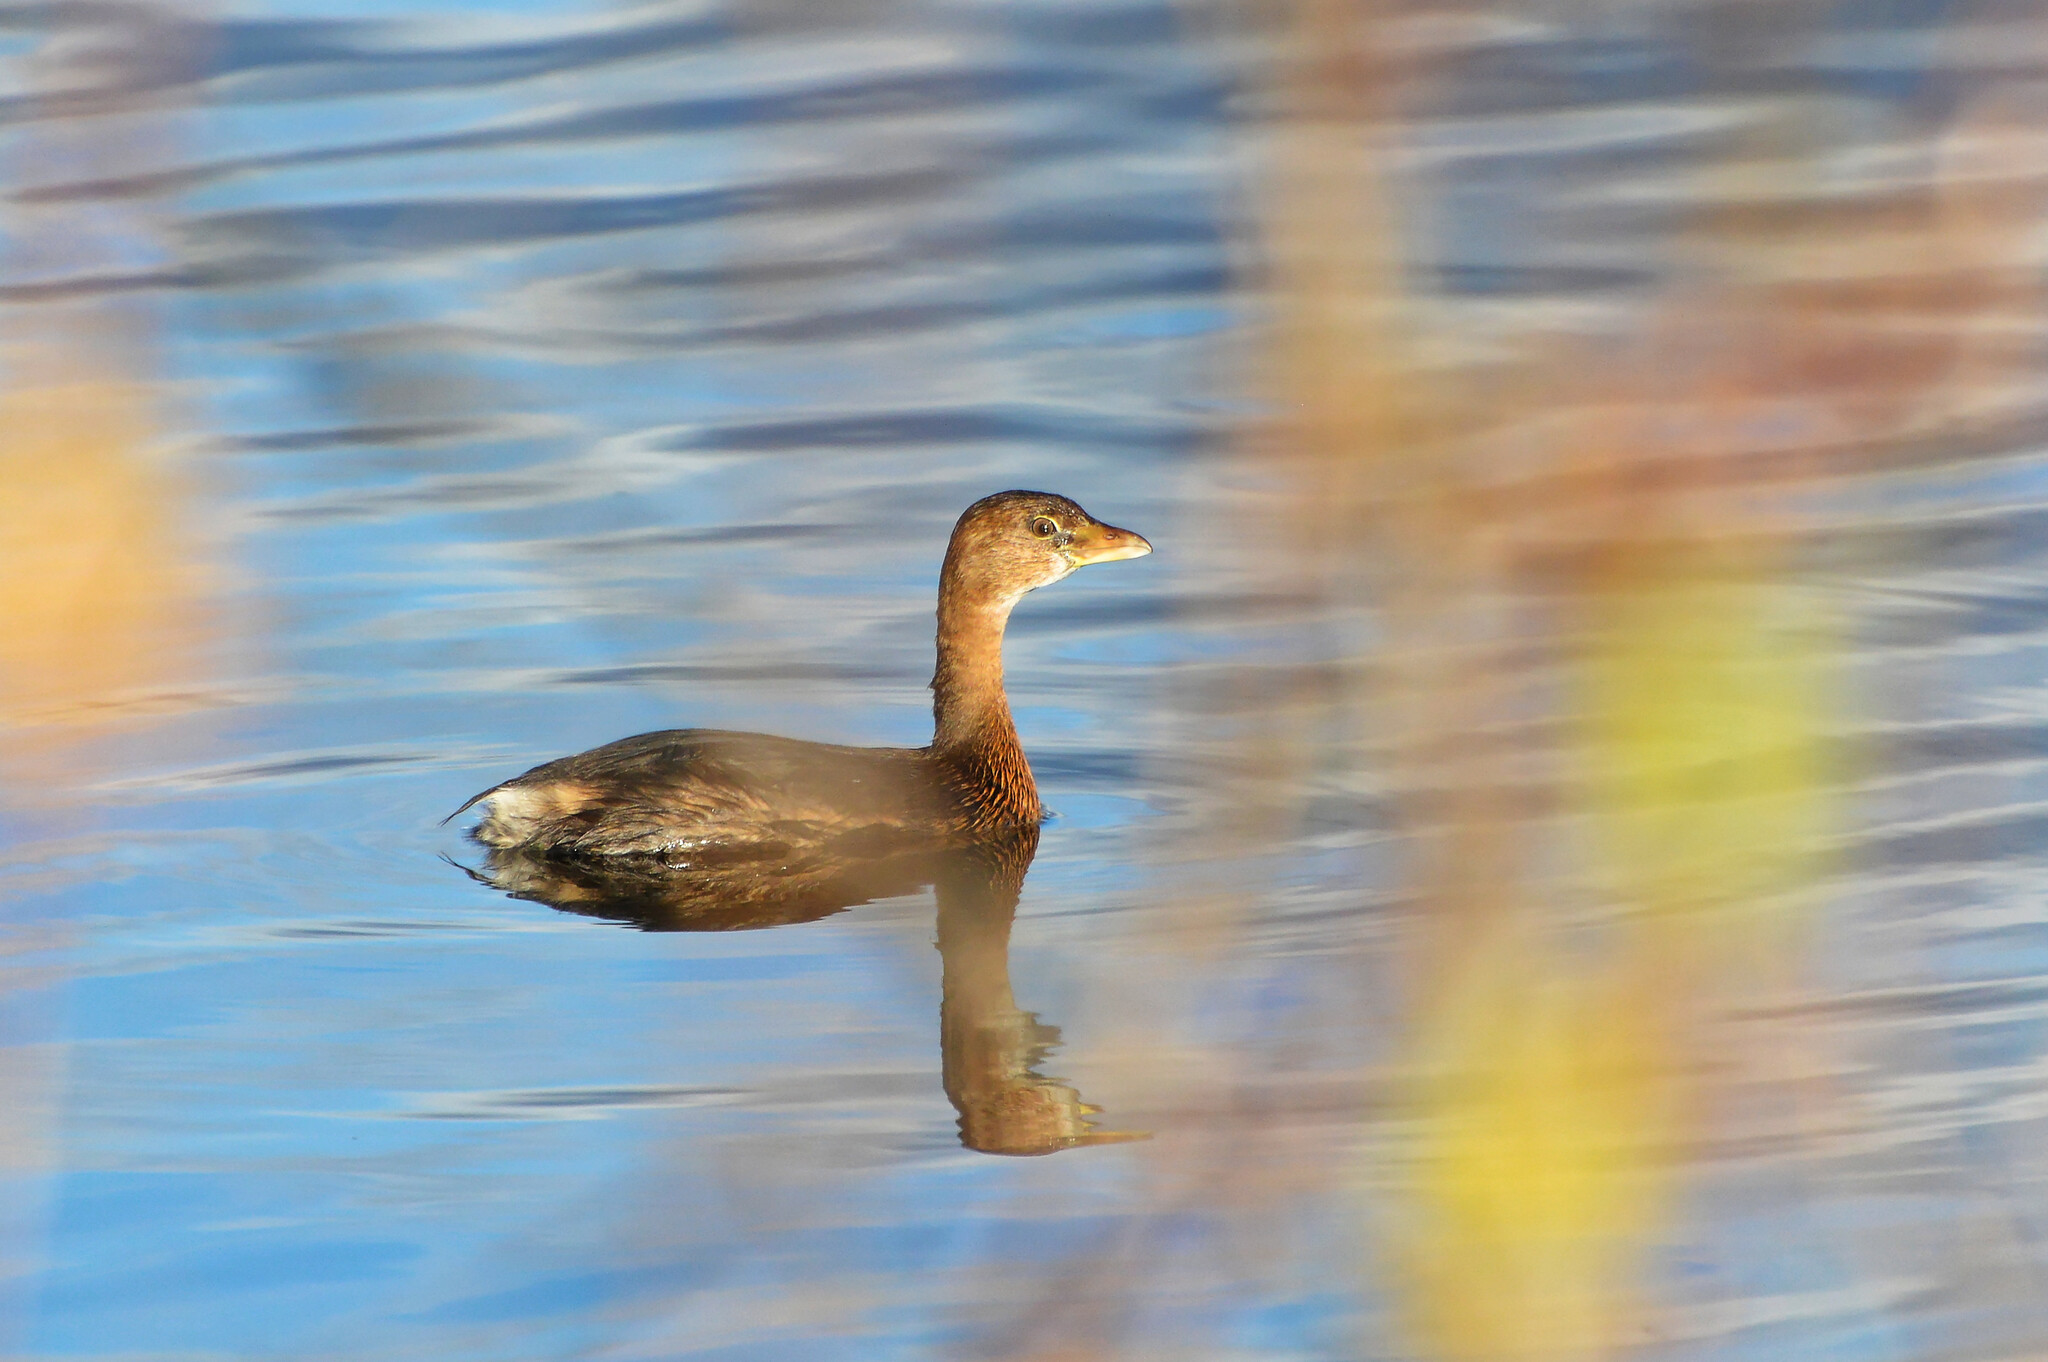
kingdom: Animalia
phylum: Chordata
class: Aves
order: Podicipediformes
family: Podicipedidae
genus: Podilymbus
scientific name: Podilymbus podiceps
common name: Pied-billed grebe
